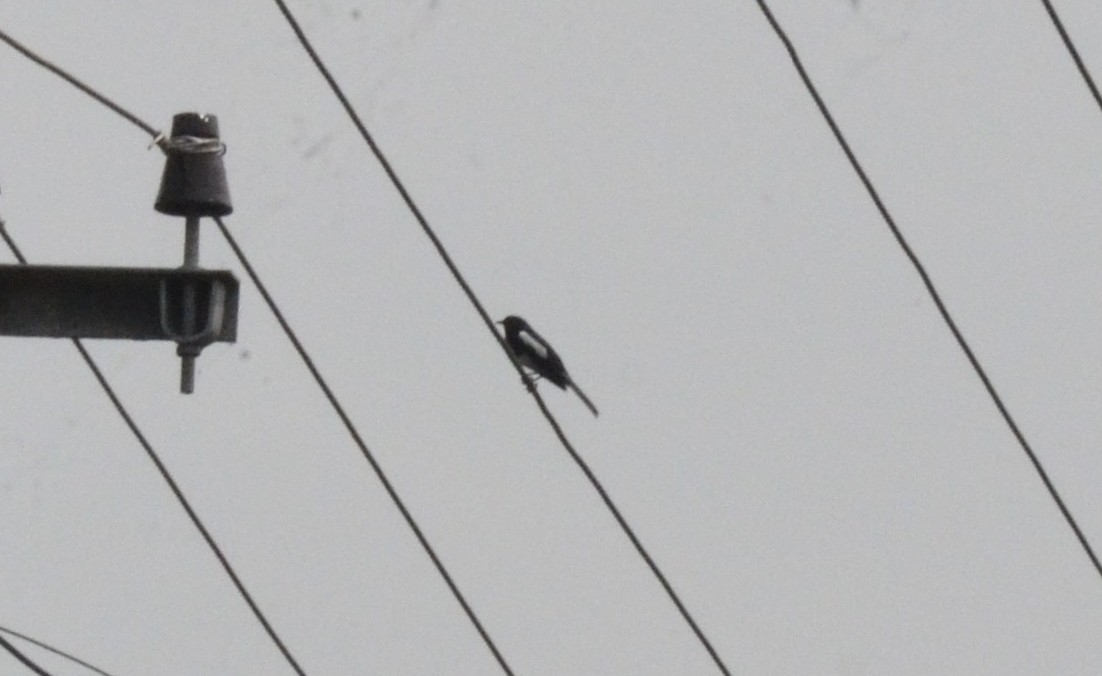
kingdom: Animalia
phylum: Chordata
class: Aves
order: Passeriformes
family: Muscicapidae
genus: Copsychus
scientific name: Copsychus saularis
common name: Oriental magpie-robin
